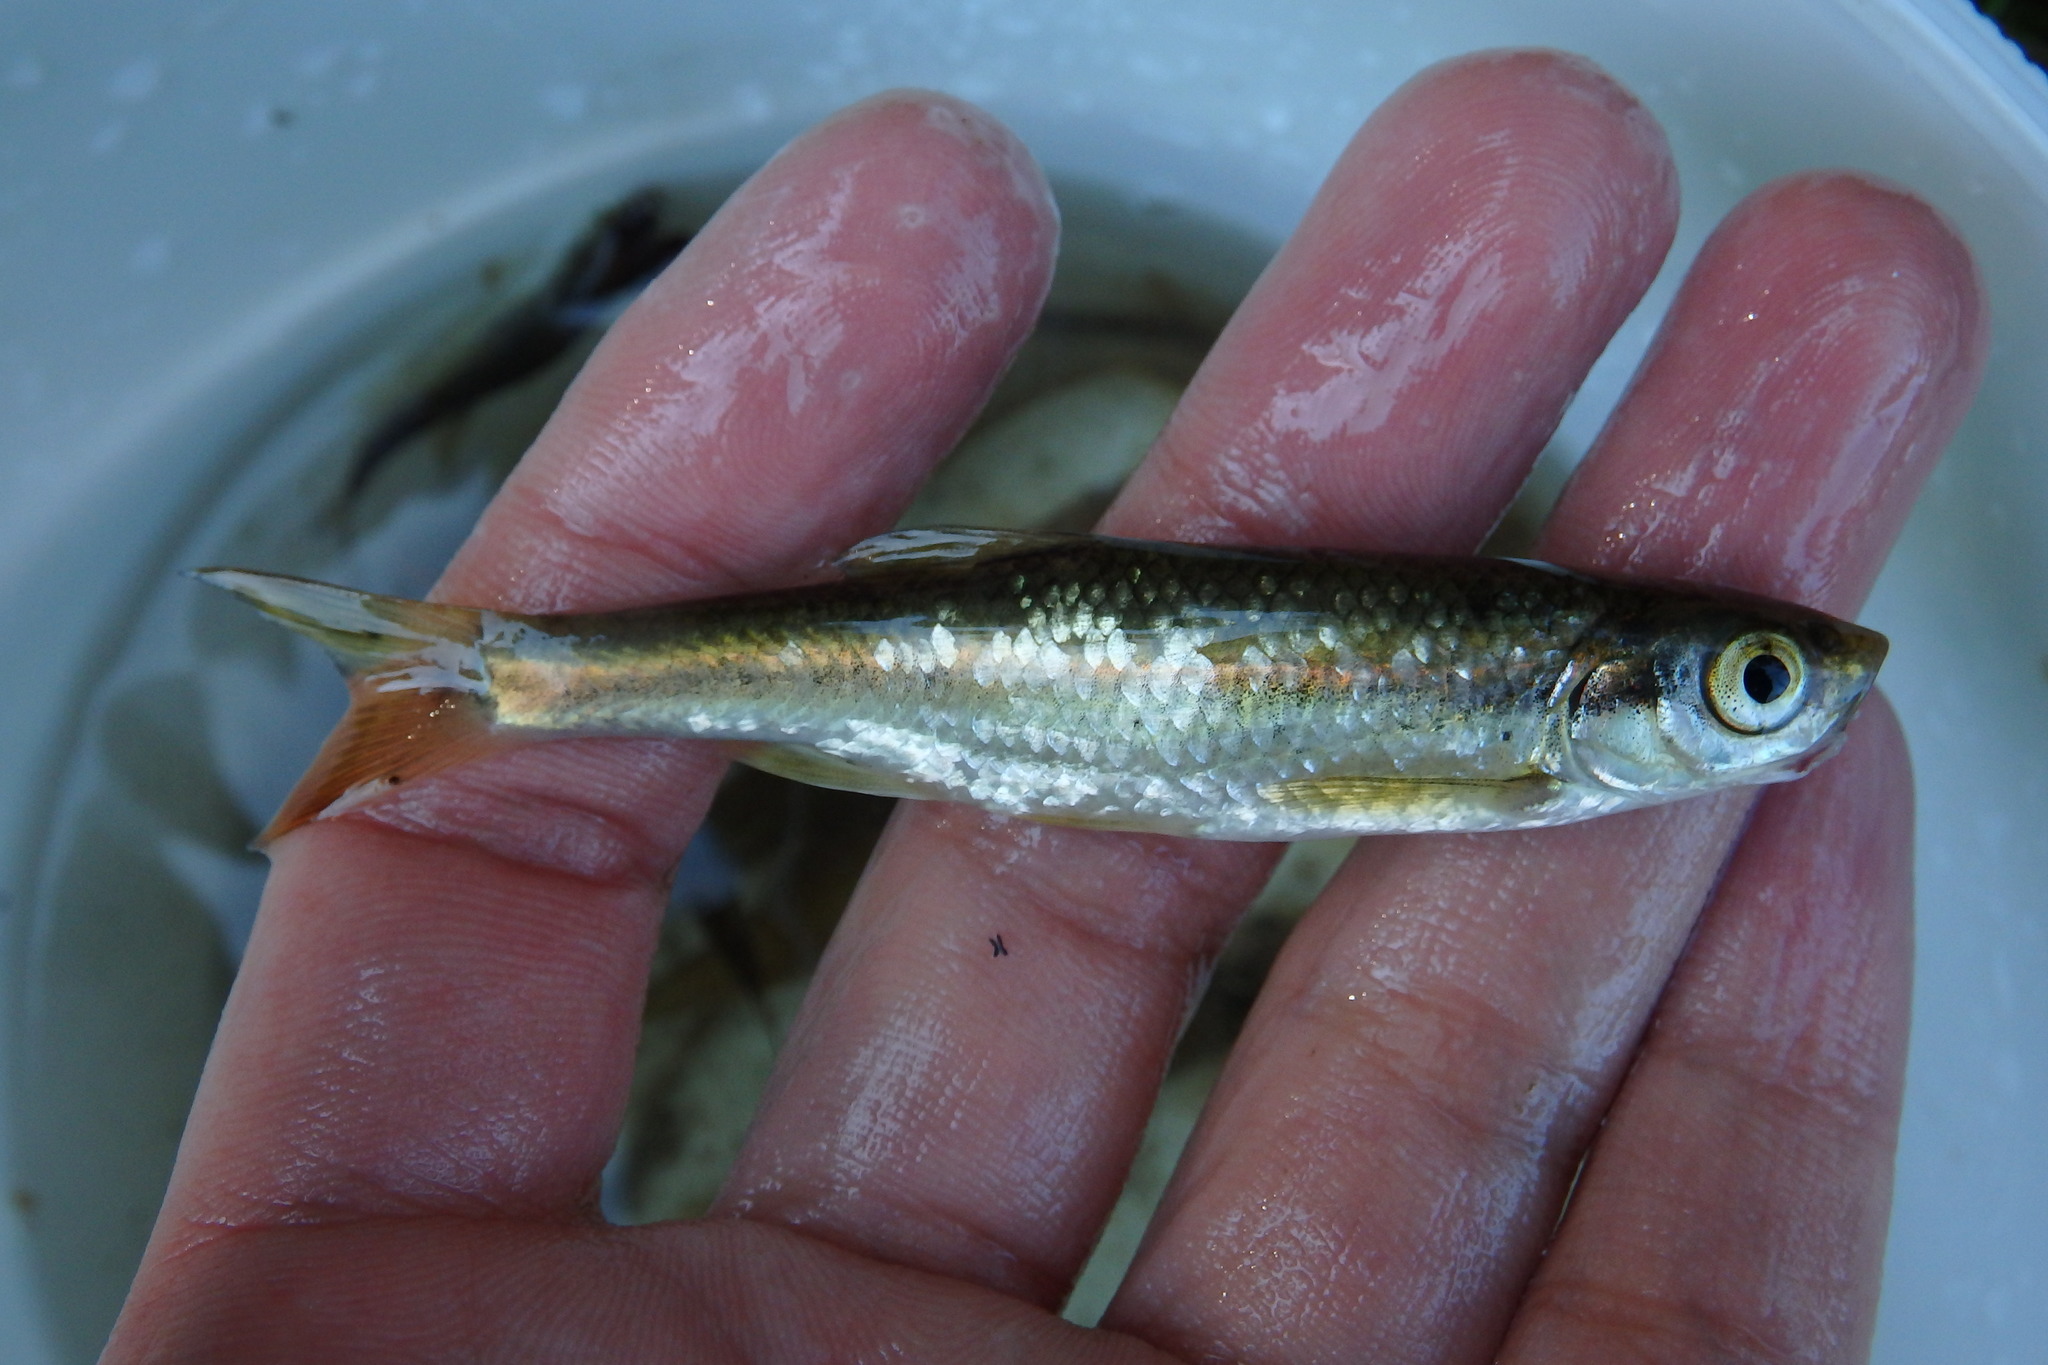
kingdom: Animalia
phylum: Chordata
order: Cypriniformes
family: Cyprinidae
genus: Squalius
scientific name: Squalius alburnoides
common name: Iberian-roach
